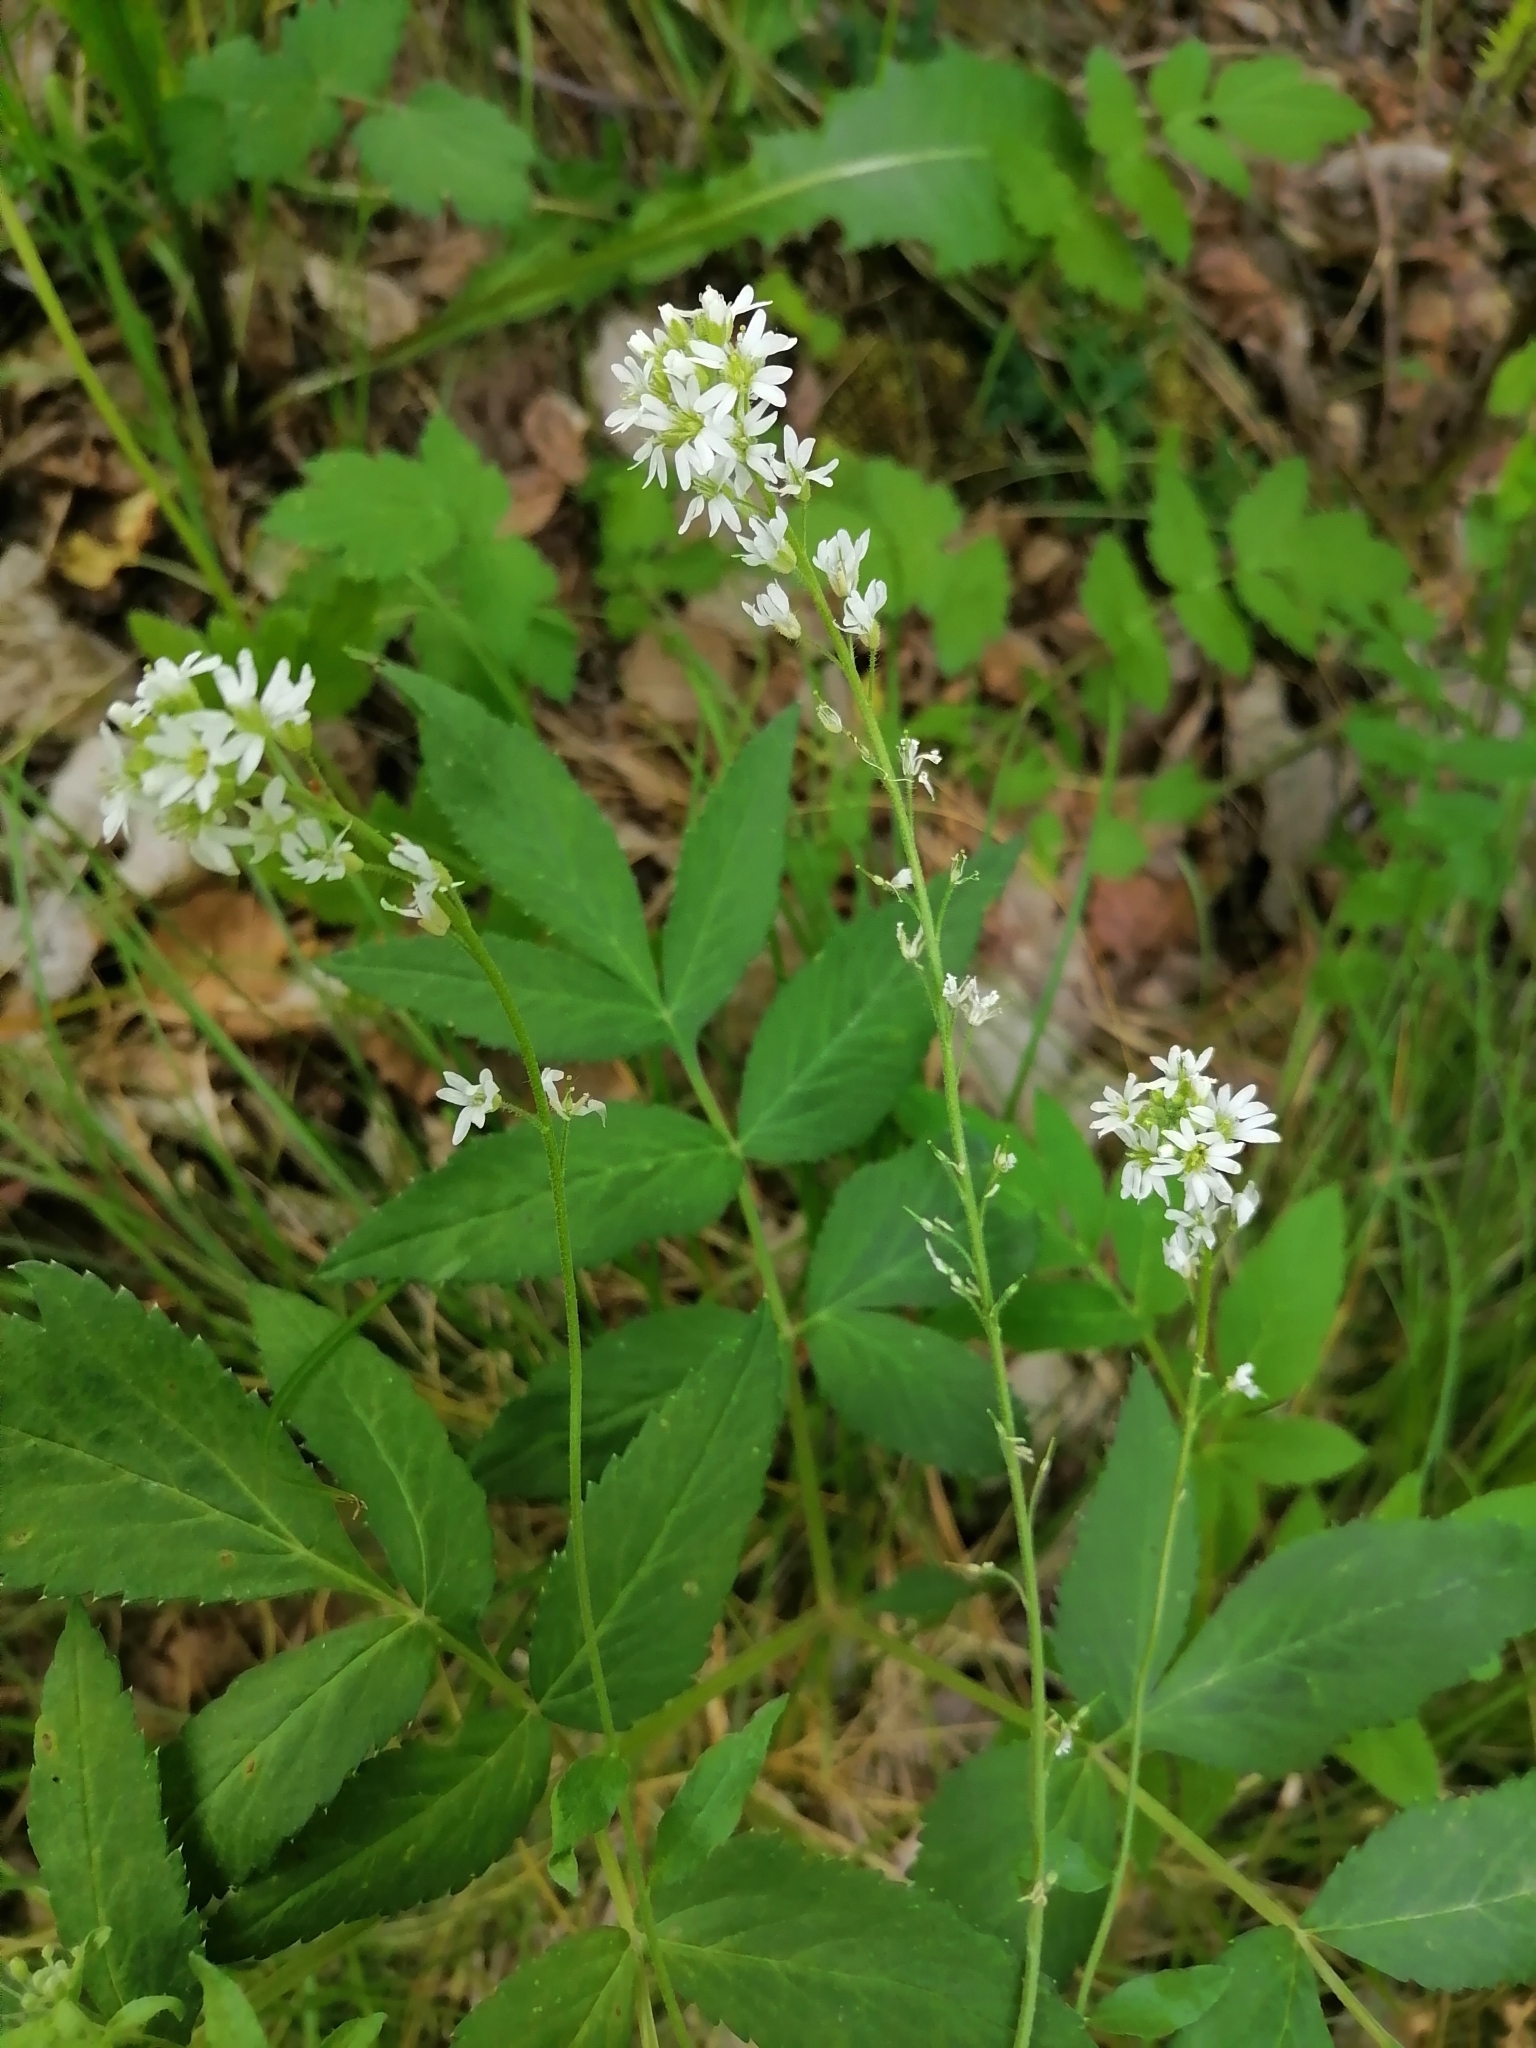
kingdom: Plantae
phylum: Tracheophyta
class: Magnoliopsida
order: Brassicales
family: Brassicaceae
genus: Berteroa
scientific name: Berteroa incana
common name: Hoary alison
